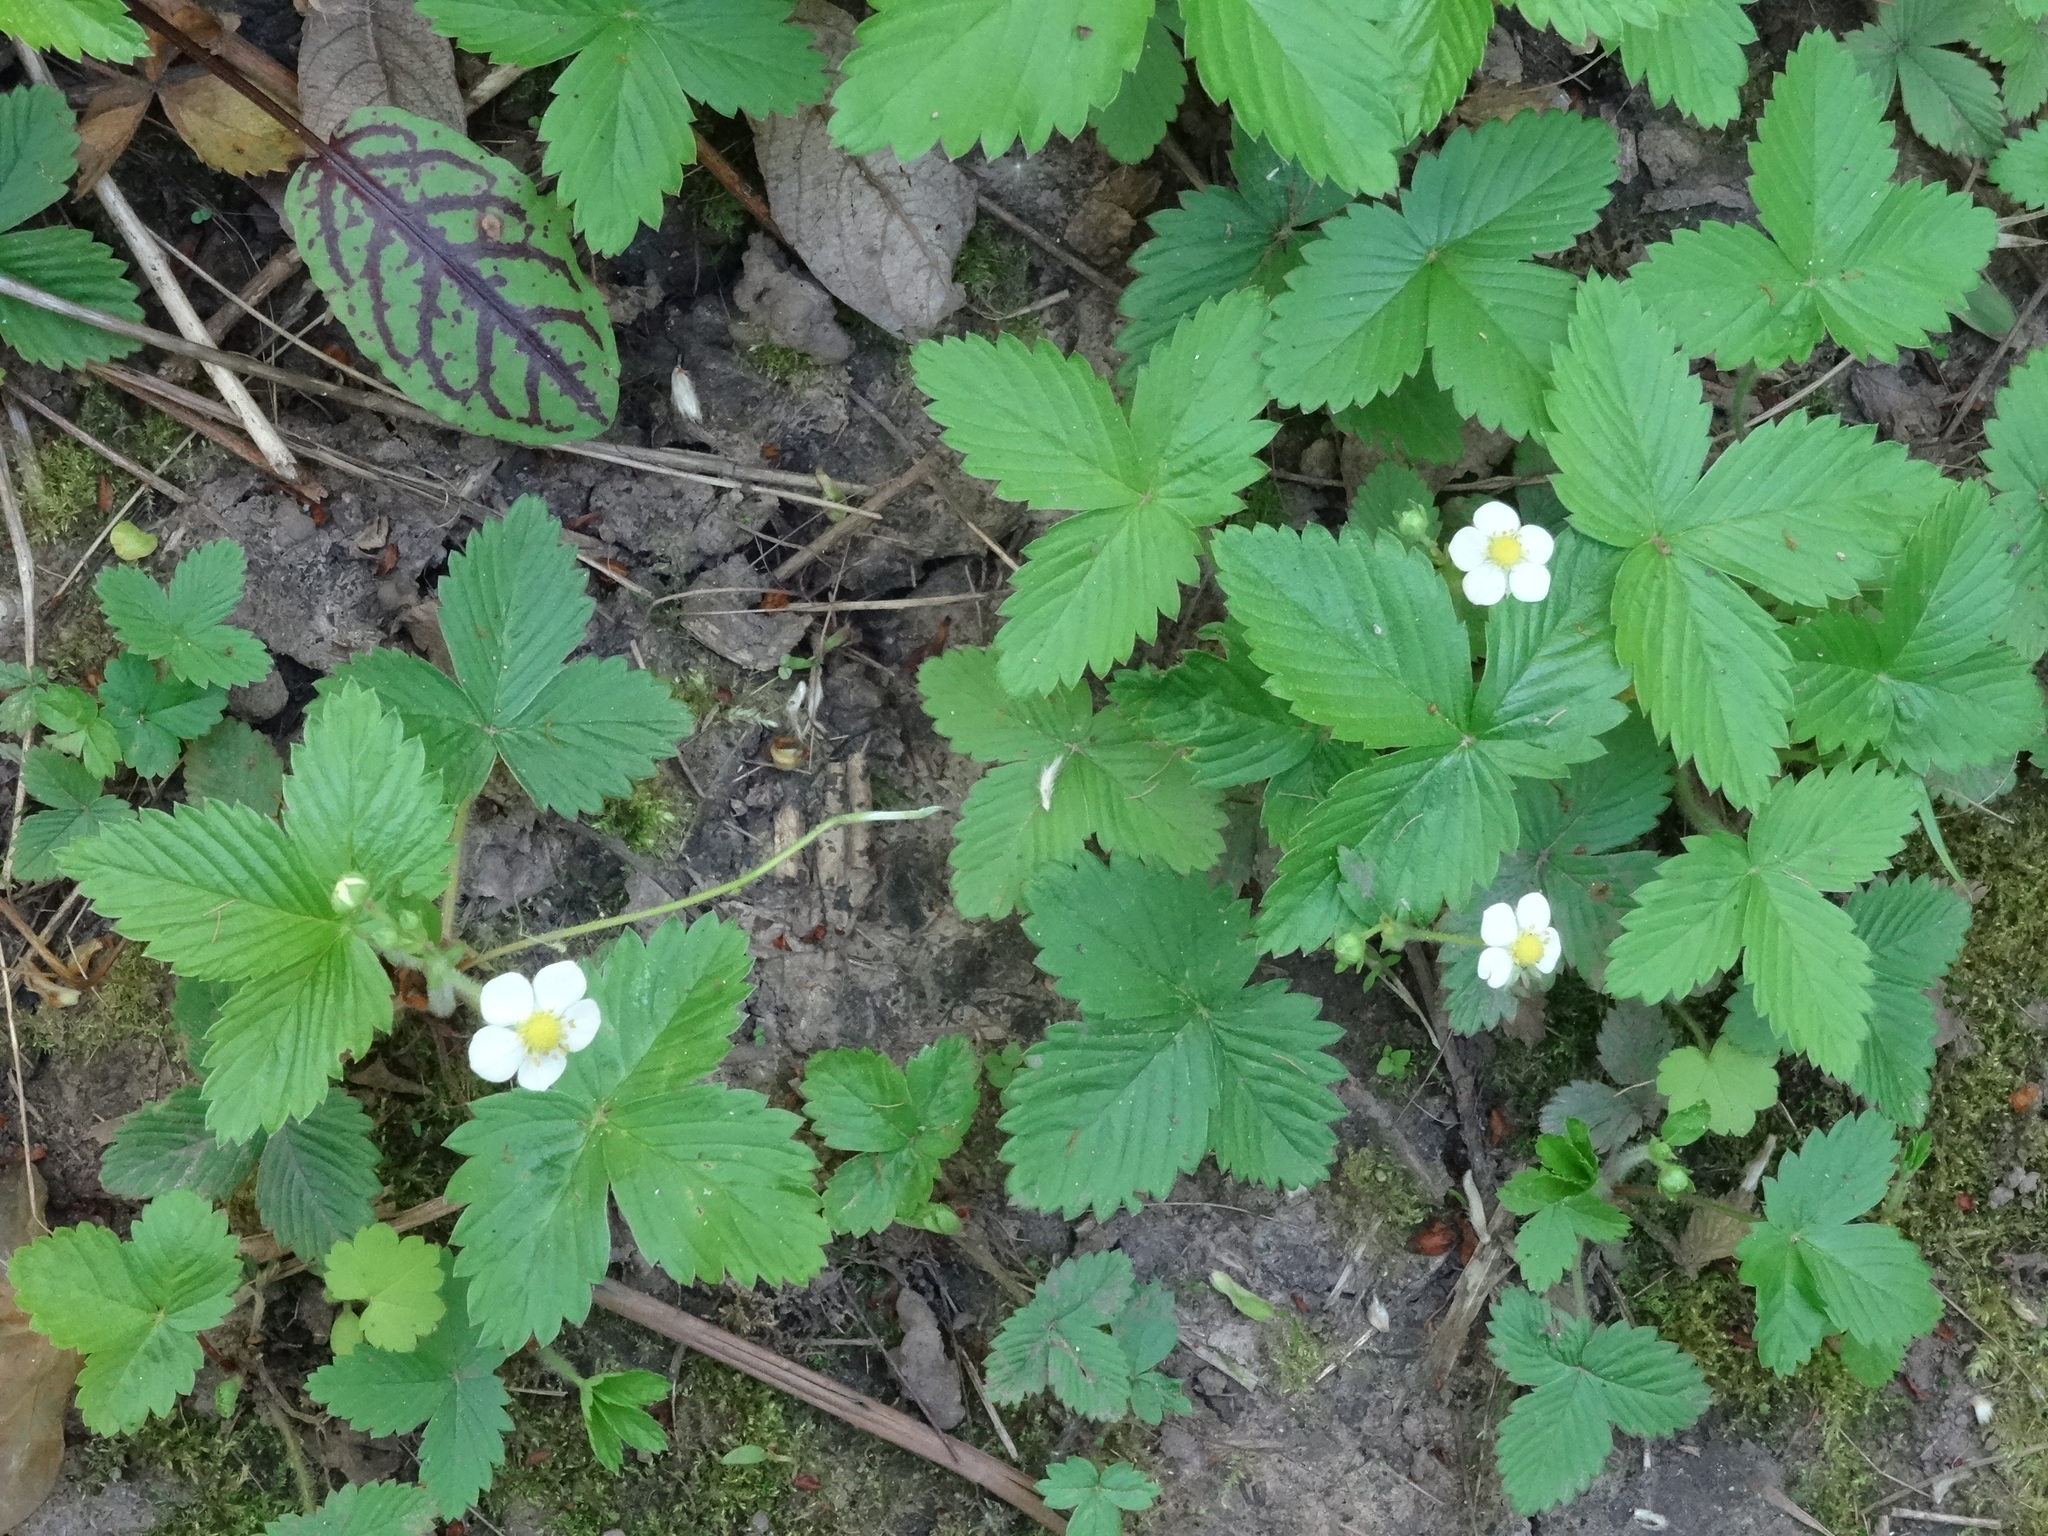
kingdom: Plantae
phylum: Tracheophyta
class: Magnoliopsida
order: Rosales
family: Rosaceae
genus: Fragaria
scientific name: Fragaria vesca
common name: Wild strawberry
